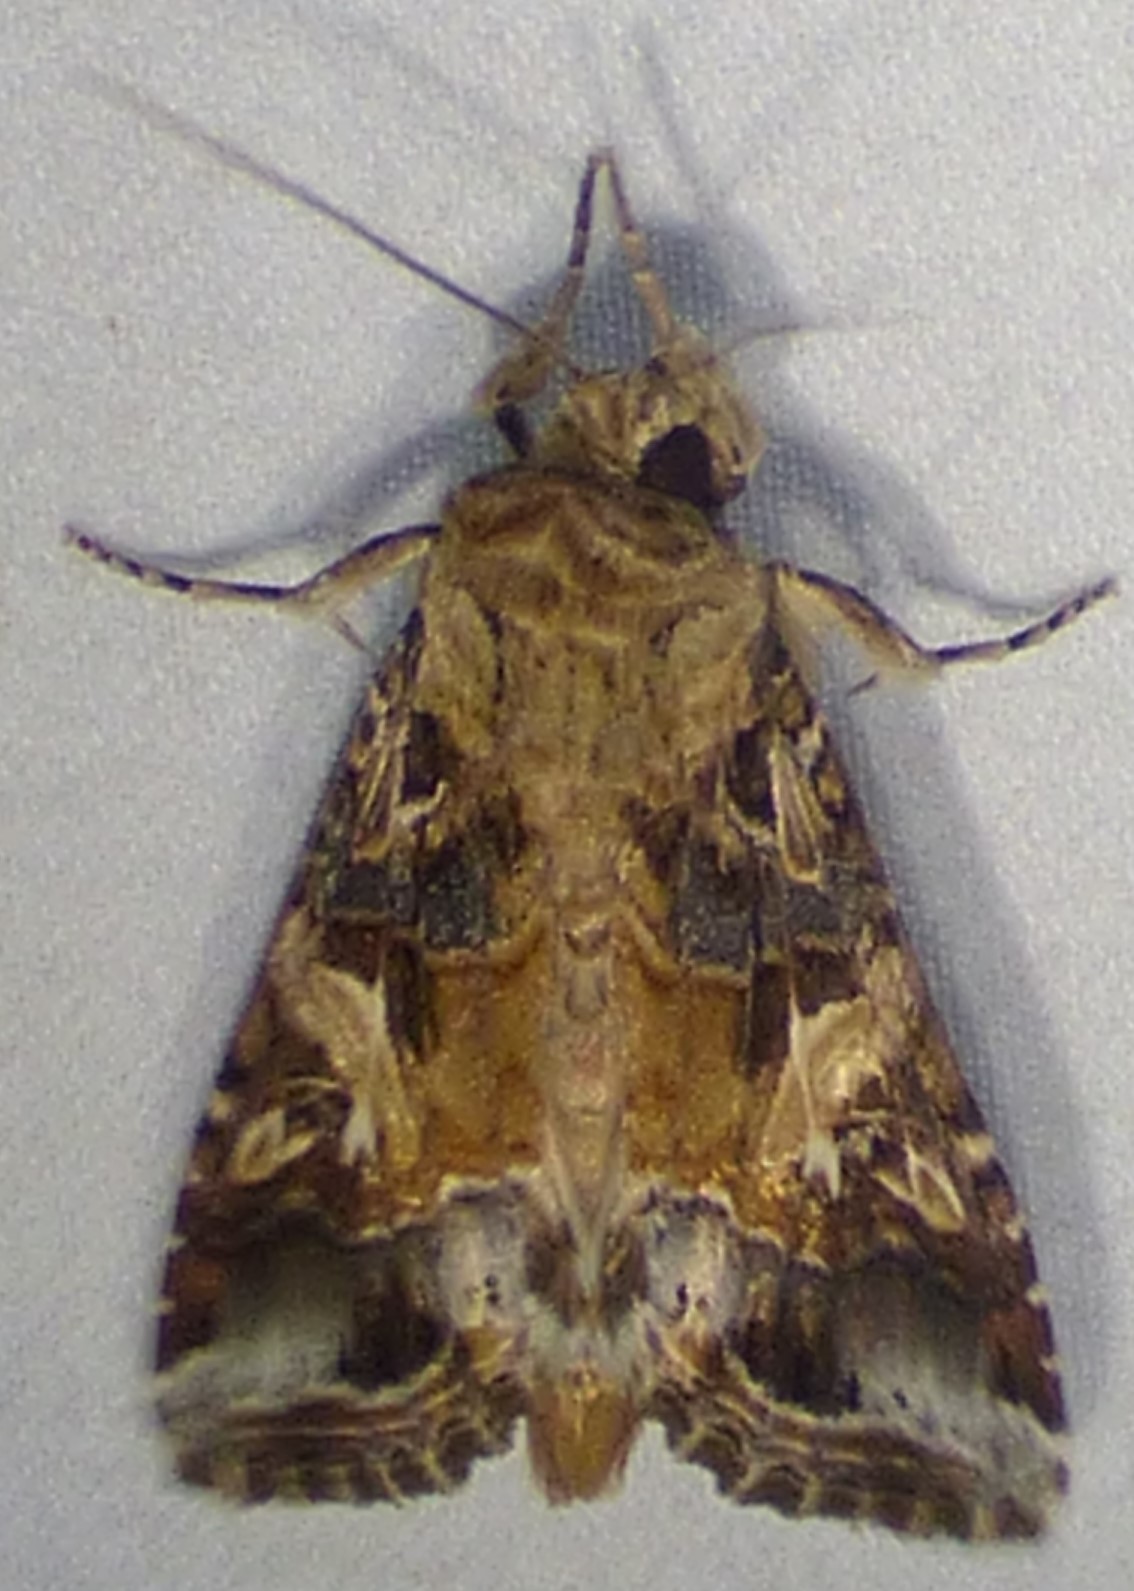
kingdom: Animalia
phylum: Arthropoda
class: Insecta
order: Lepidoptera
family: Noctuidae
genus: Spodoptera
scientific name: Spodoptera ornithogalli
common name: Yellow-striped armyworm
